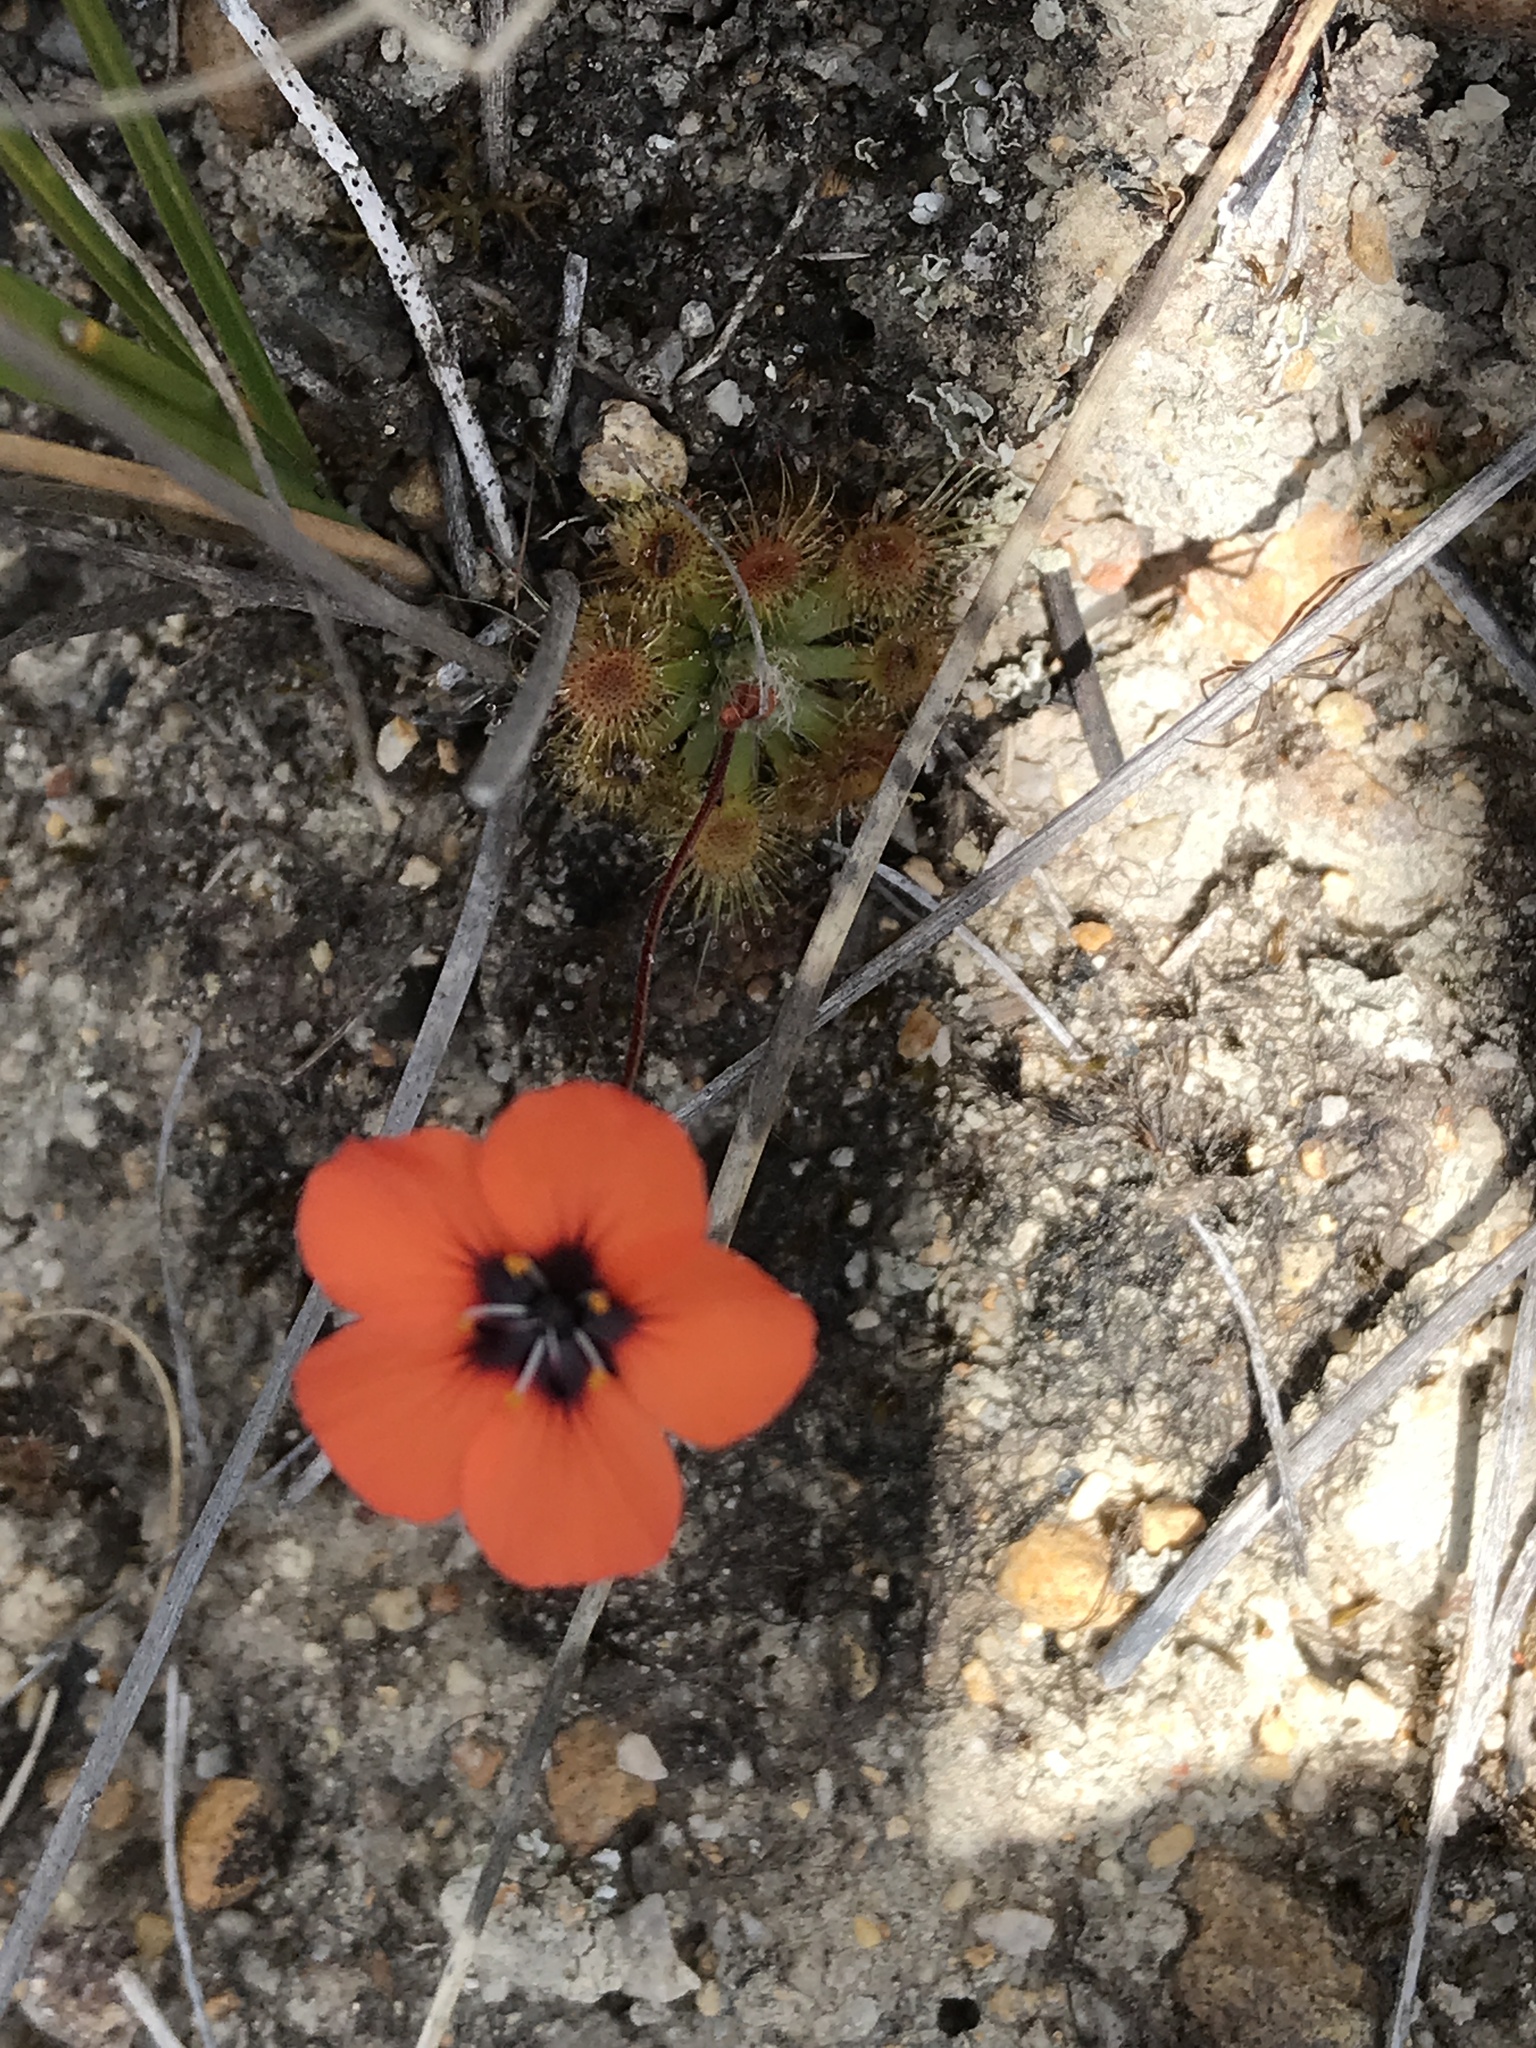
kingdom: Plantae
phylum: Tracheophyta
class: Magnoliopsida
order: Caryophyllales
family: Droseraceae
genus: Drosera
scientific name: Drosera platystigma
